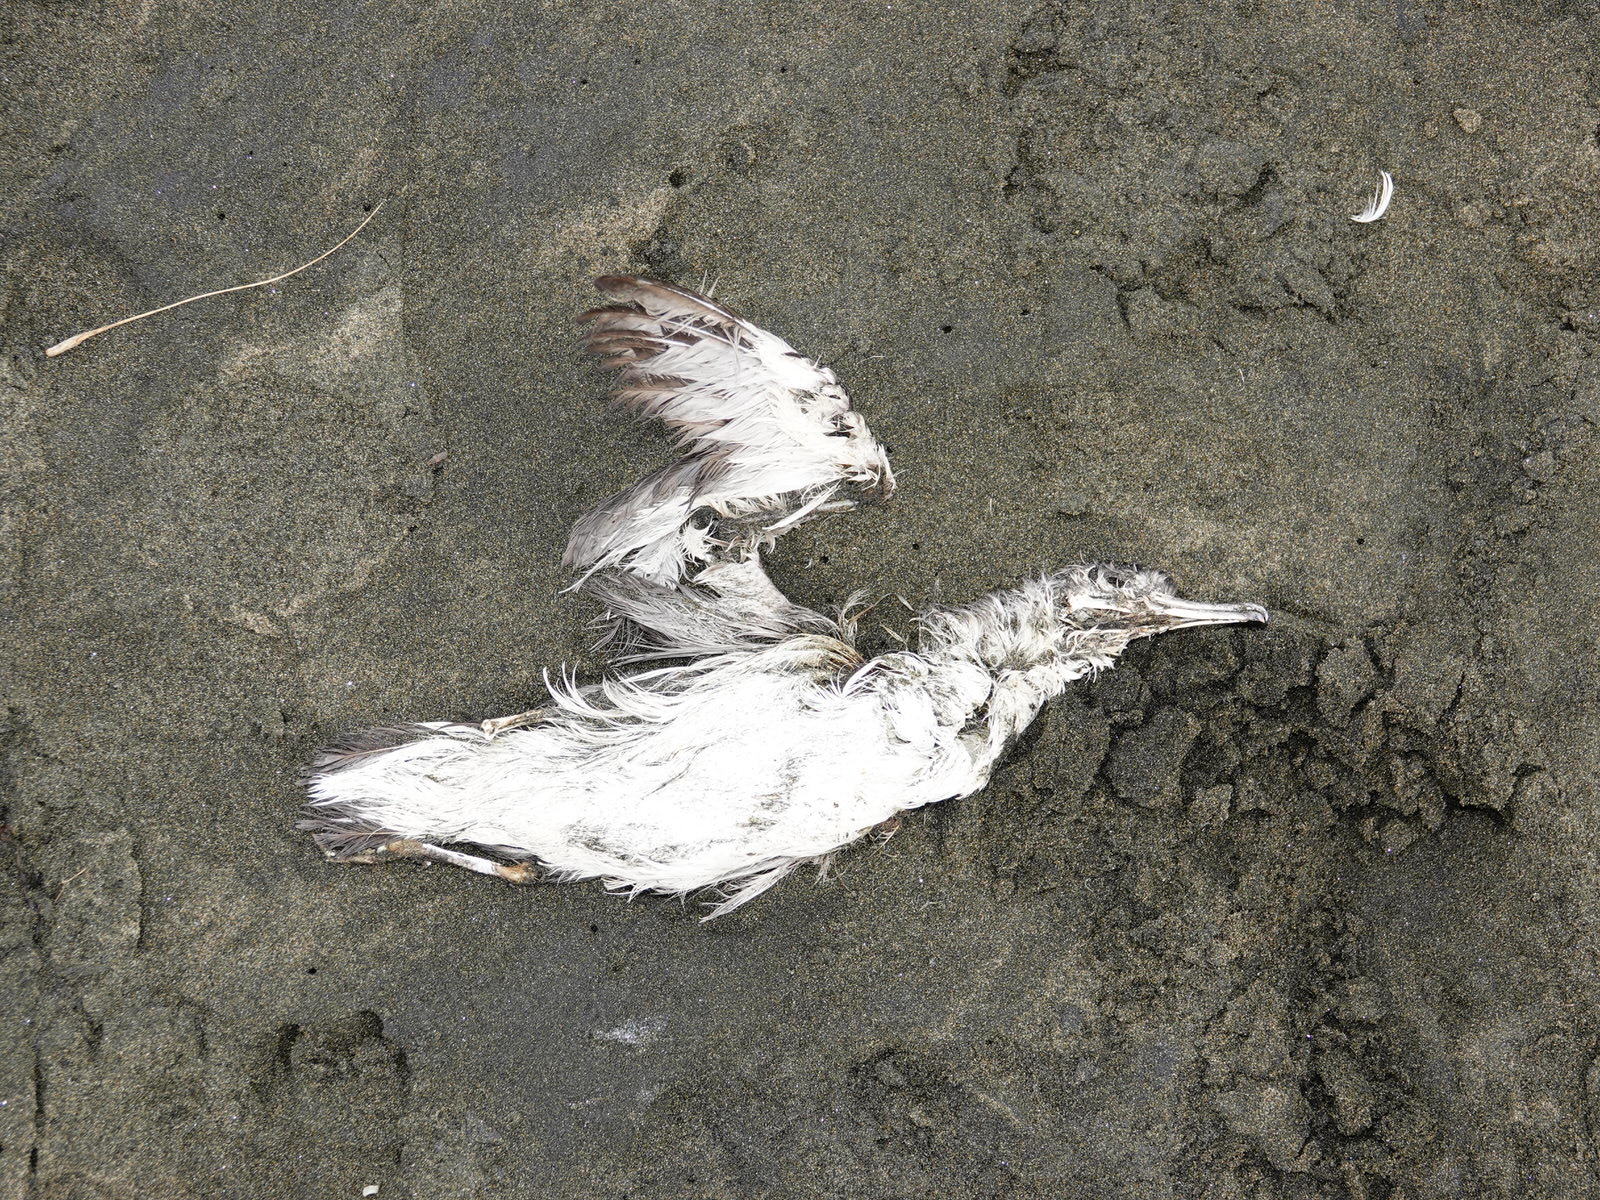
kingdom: Animalia
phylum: Chordata
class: Aves
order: Procellariiformes
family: Procellariidae
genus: Puffinus
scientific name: Puffinus bulleri
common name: Buller's shearwater
